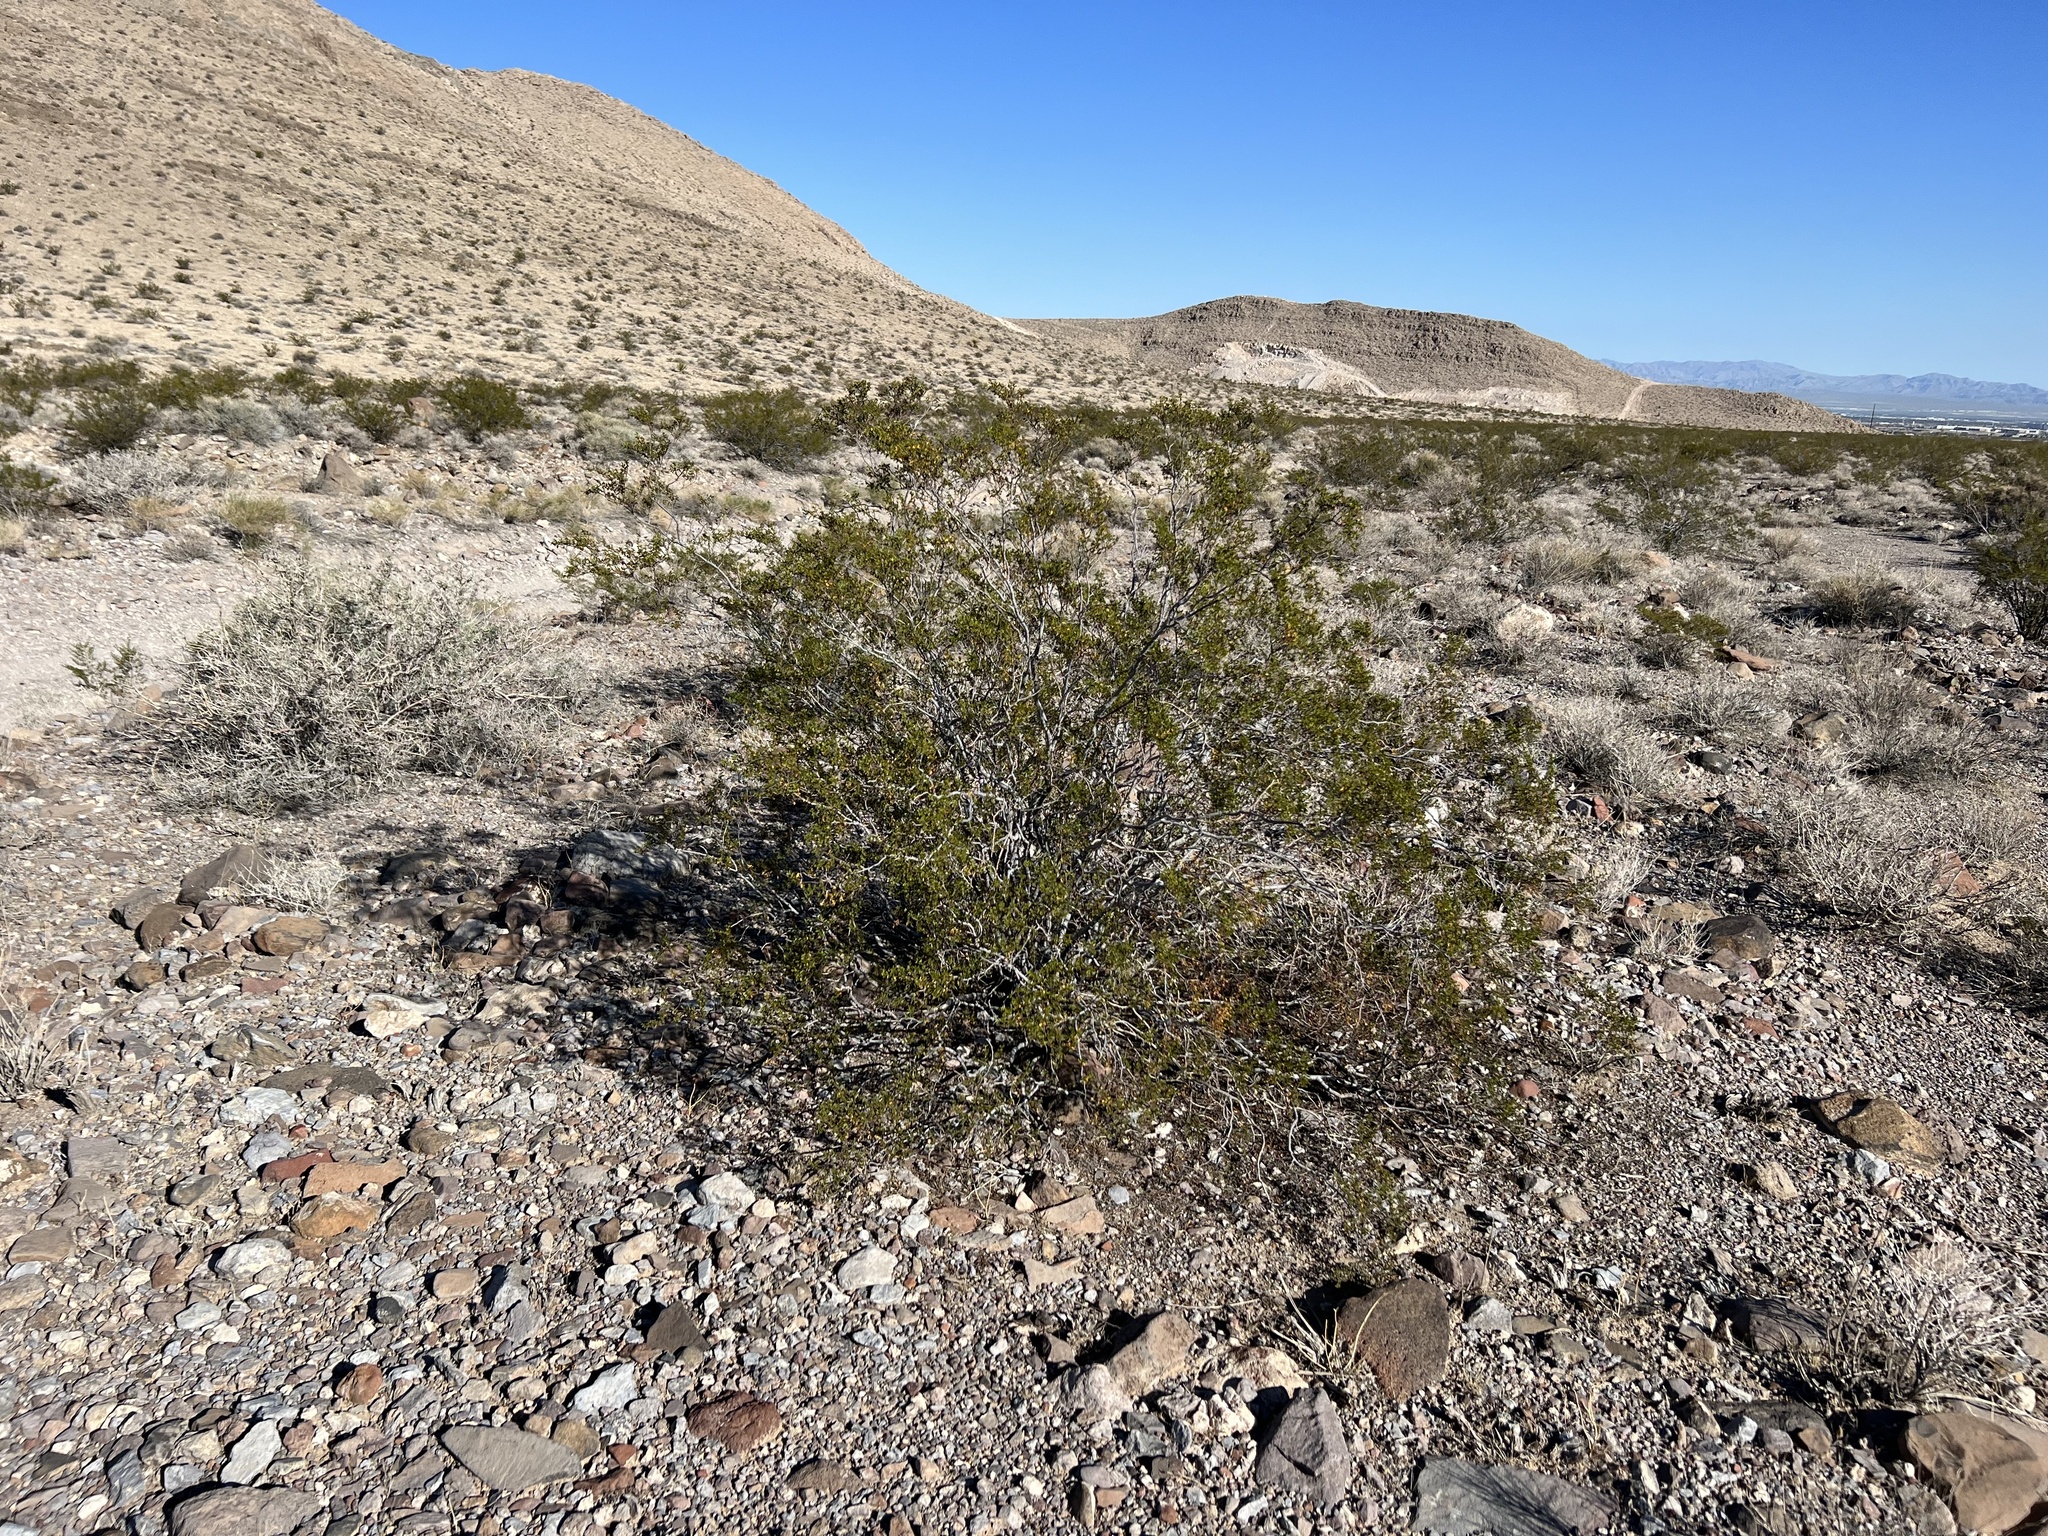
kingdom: Plantae
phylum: Tracheophyta
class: Magnoliopsida
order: Zygophyllales
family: Zygophyllaceae
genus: Larrea
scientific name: Larrea tridentata
